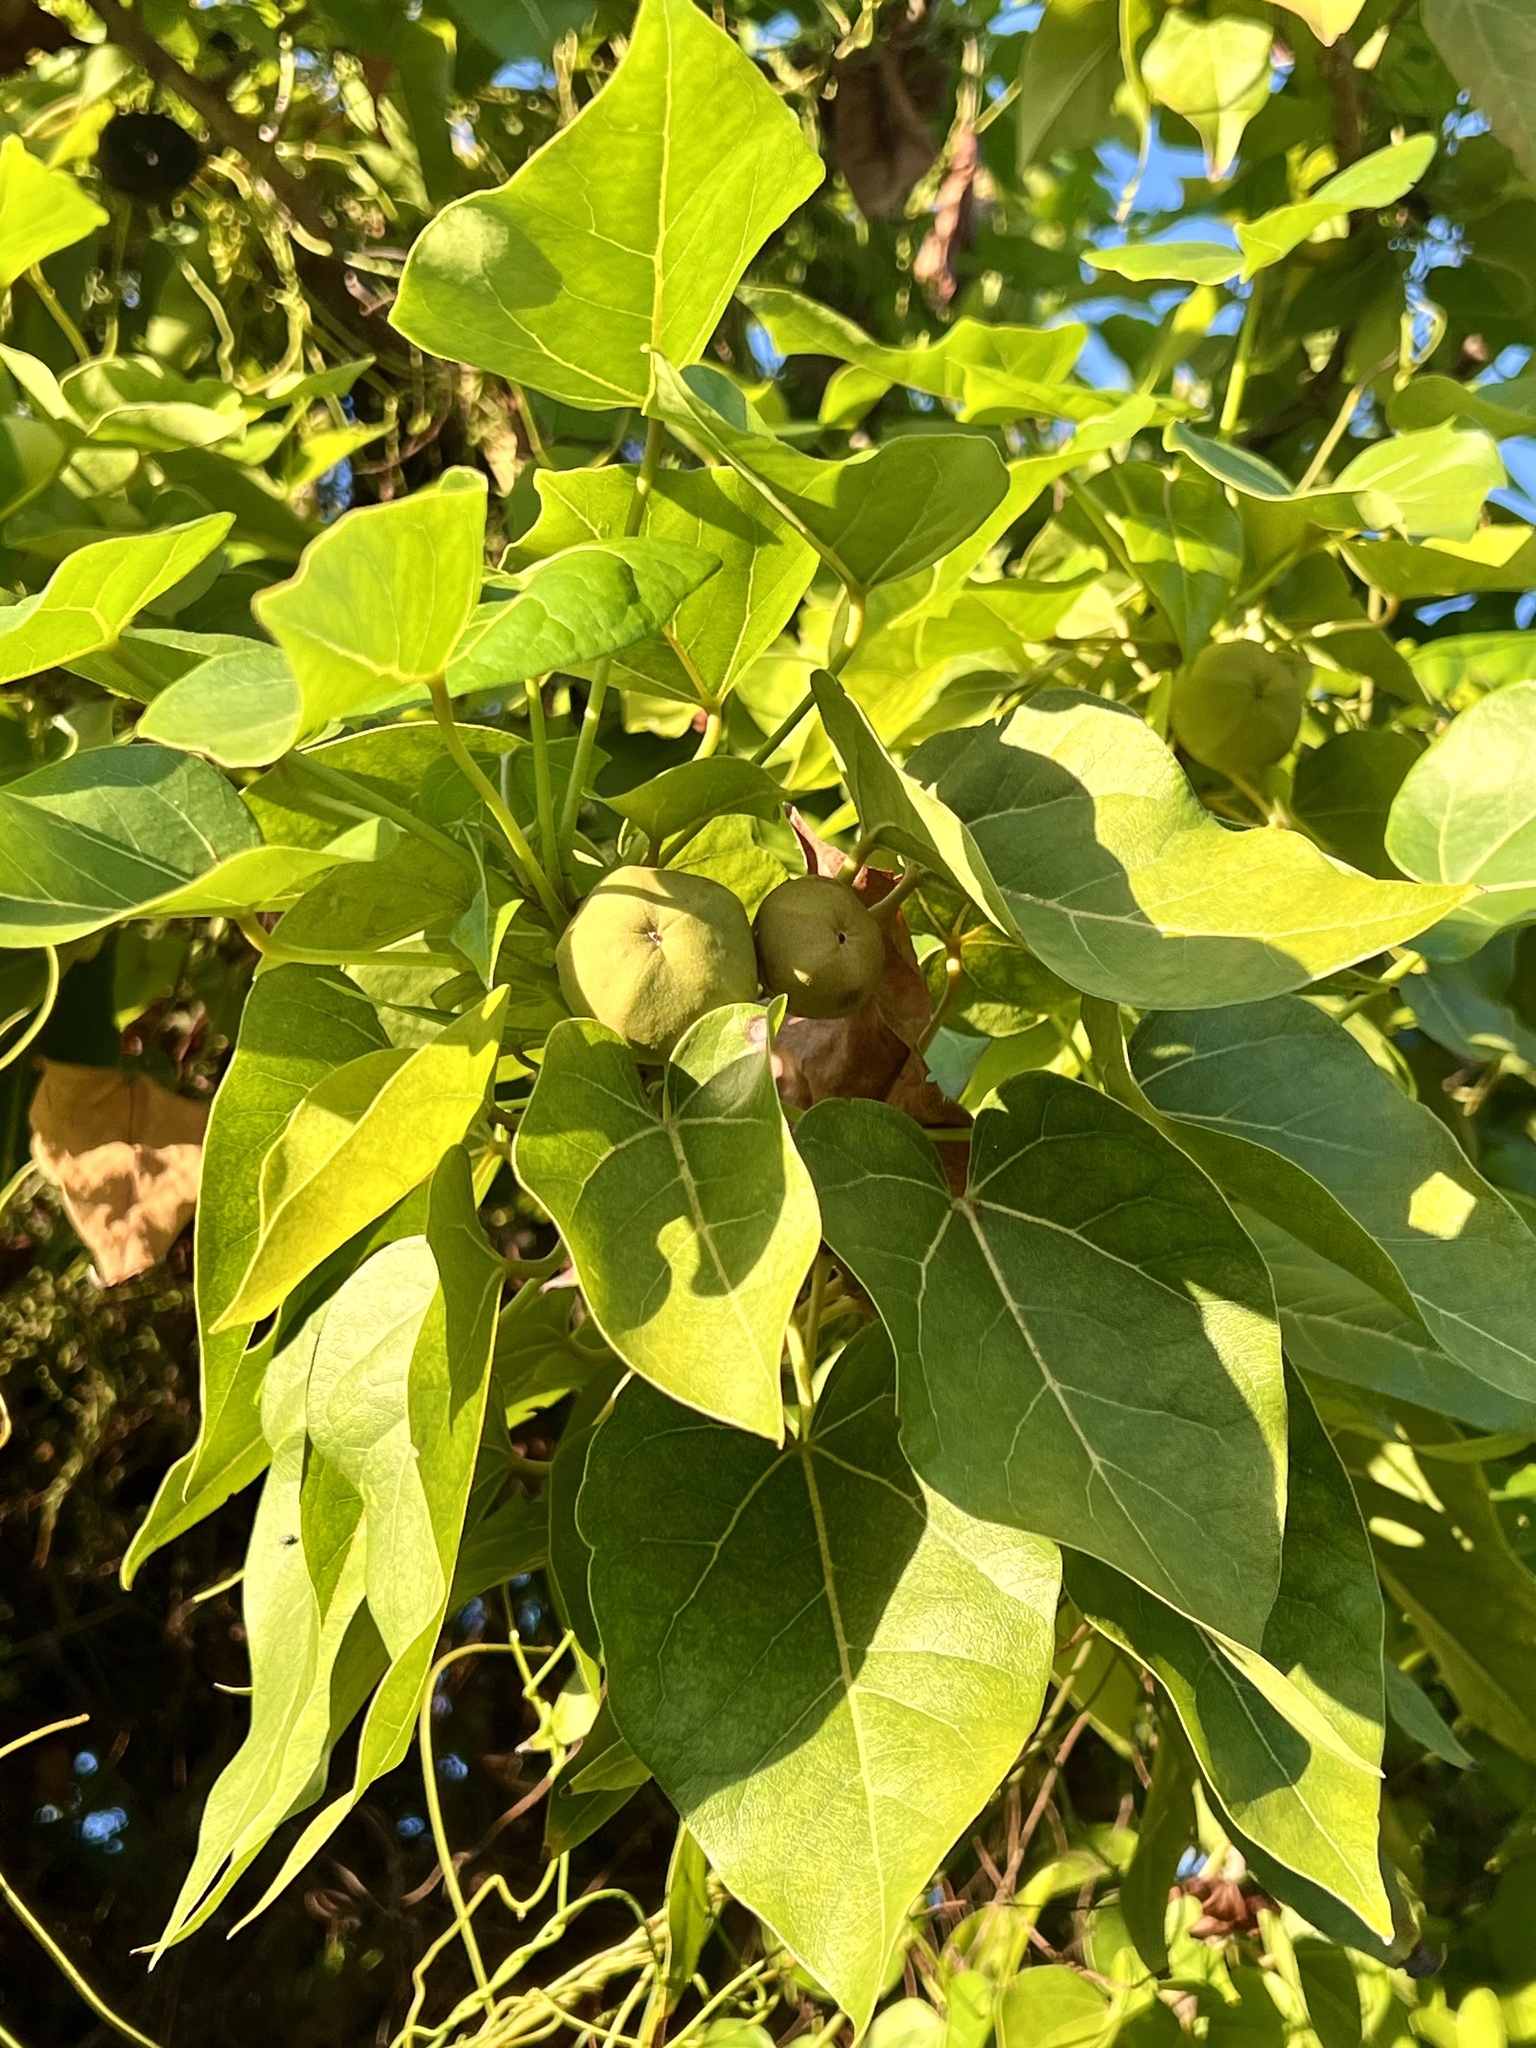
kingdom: Plantae
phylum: Tracheophyta
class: Magnoliopsida
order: Malvales
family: Malvaceae
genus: Thespesia
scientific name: Thespesia populnea
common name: Seaside mahoe
